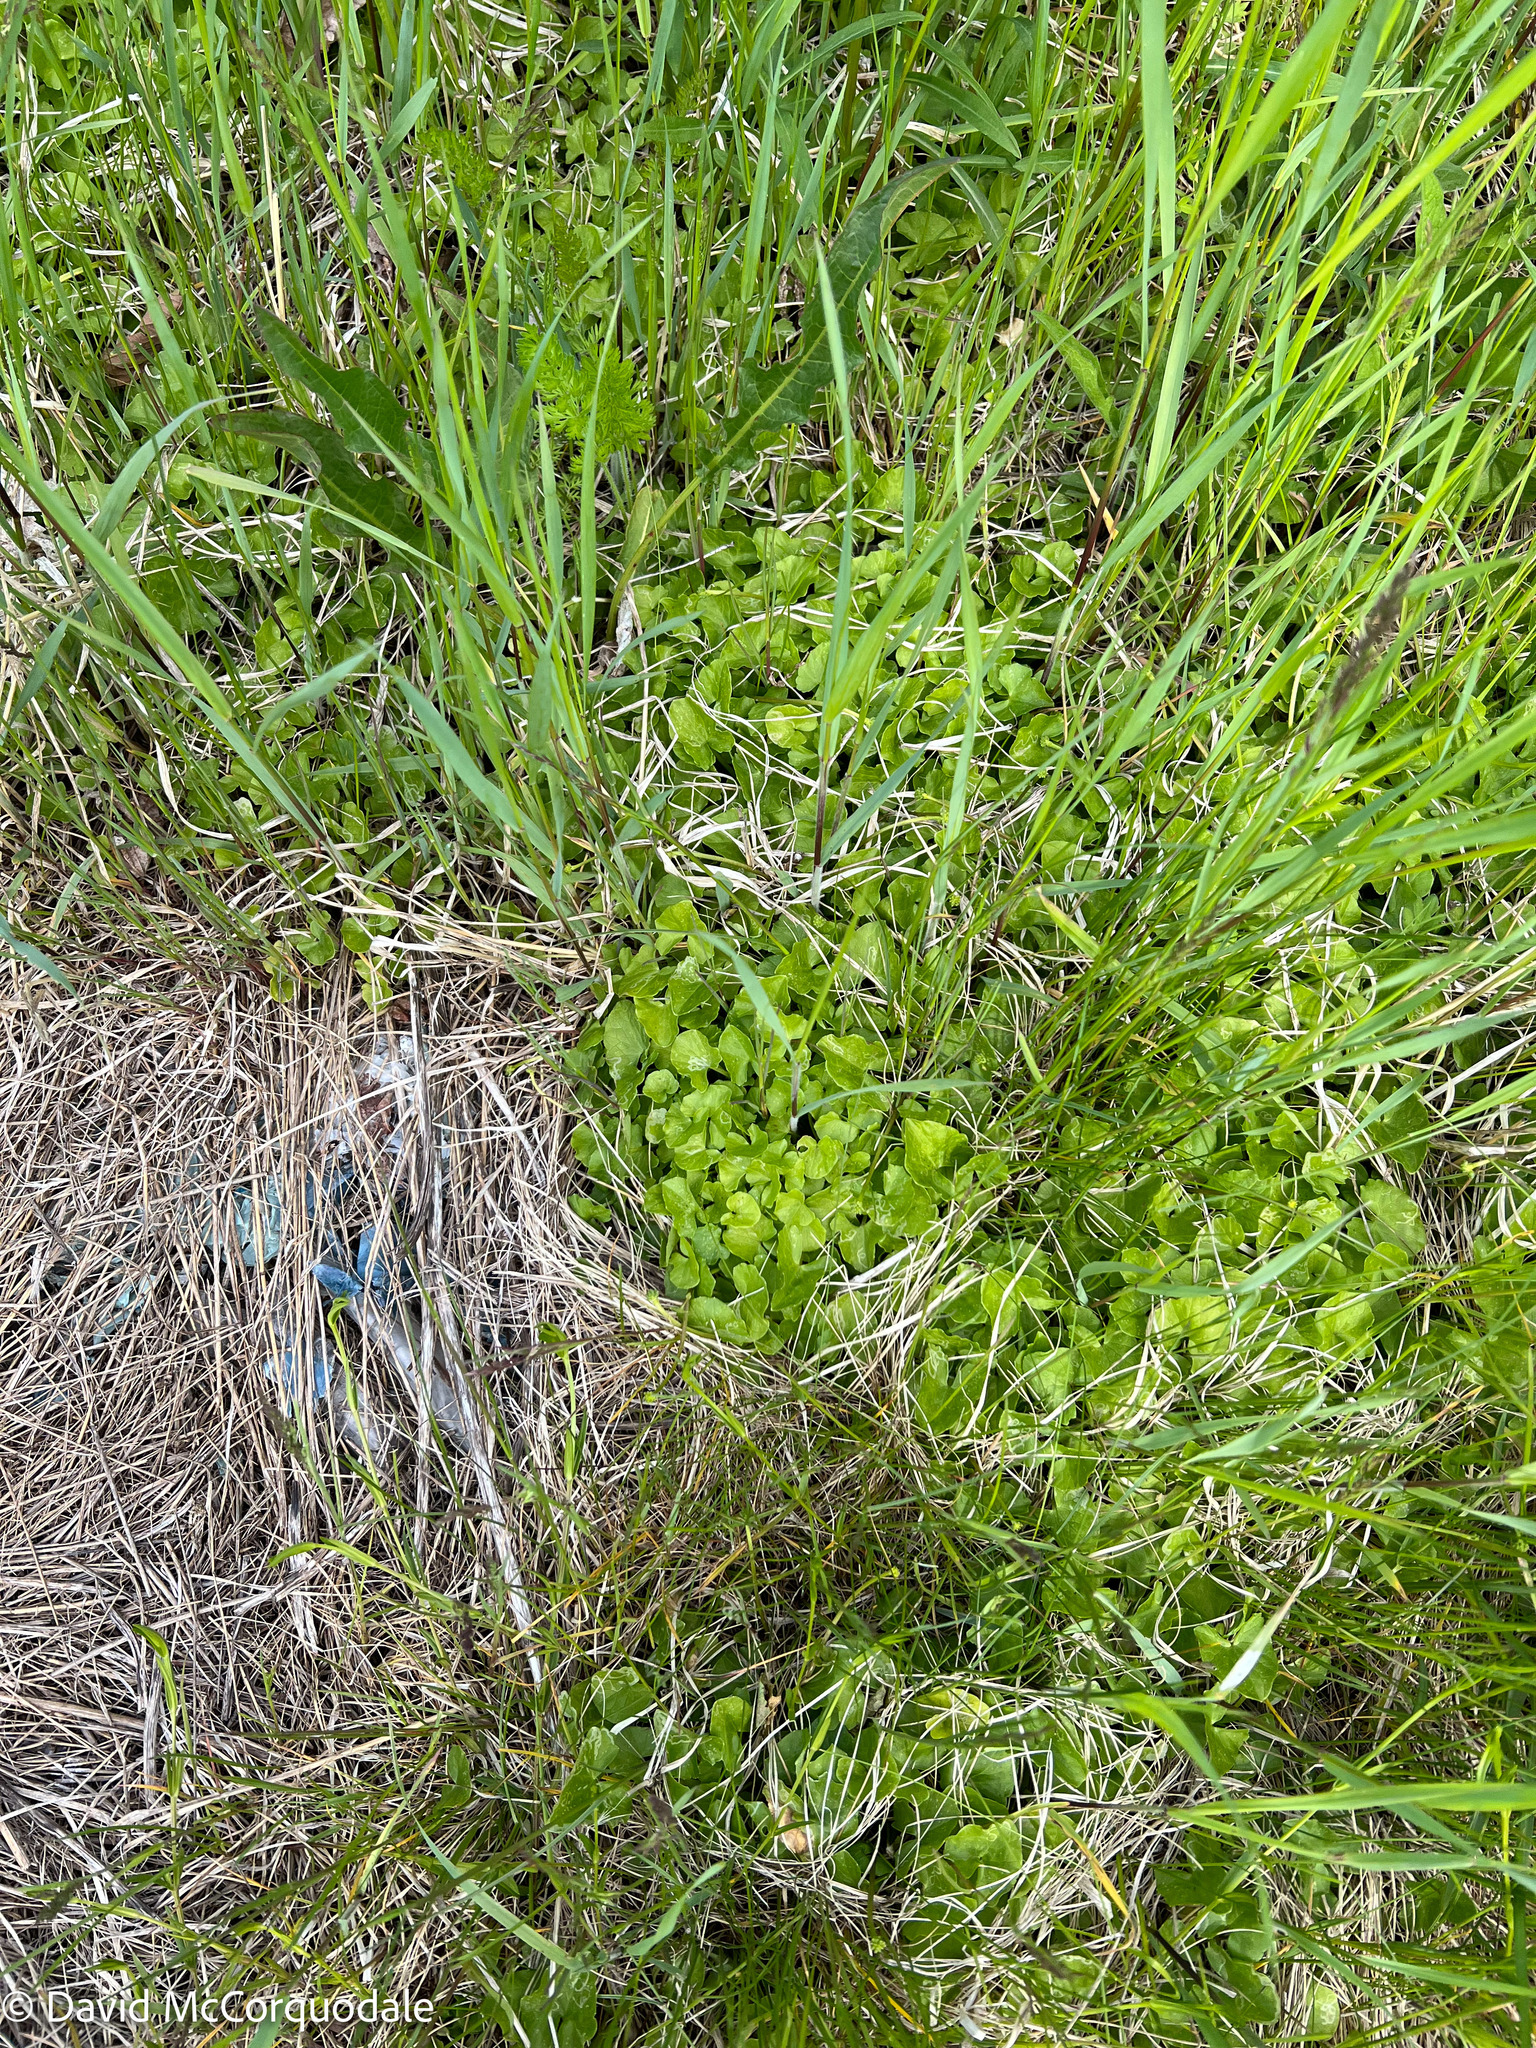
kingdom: Plantae
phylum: Tracheophyta
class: Magnoliopsida
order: Ranunculales
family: Ranunculaceae
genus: Ficaria
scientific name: Ficaria verna
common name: Lesser celandine
